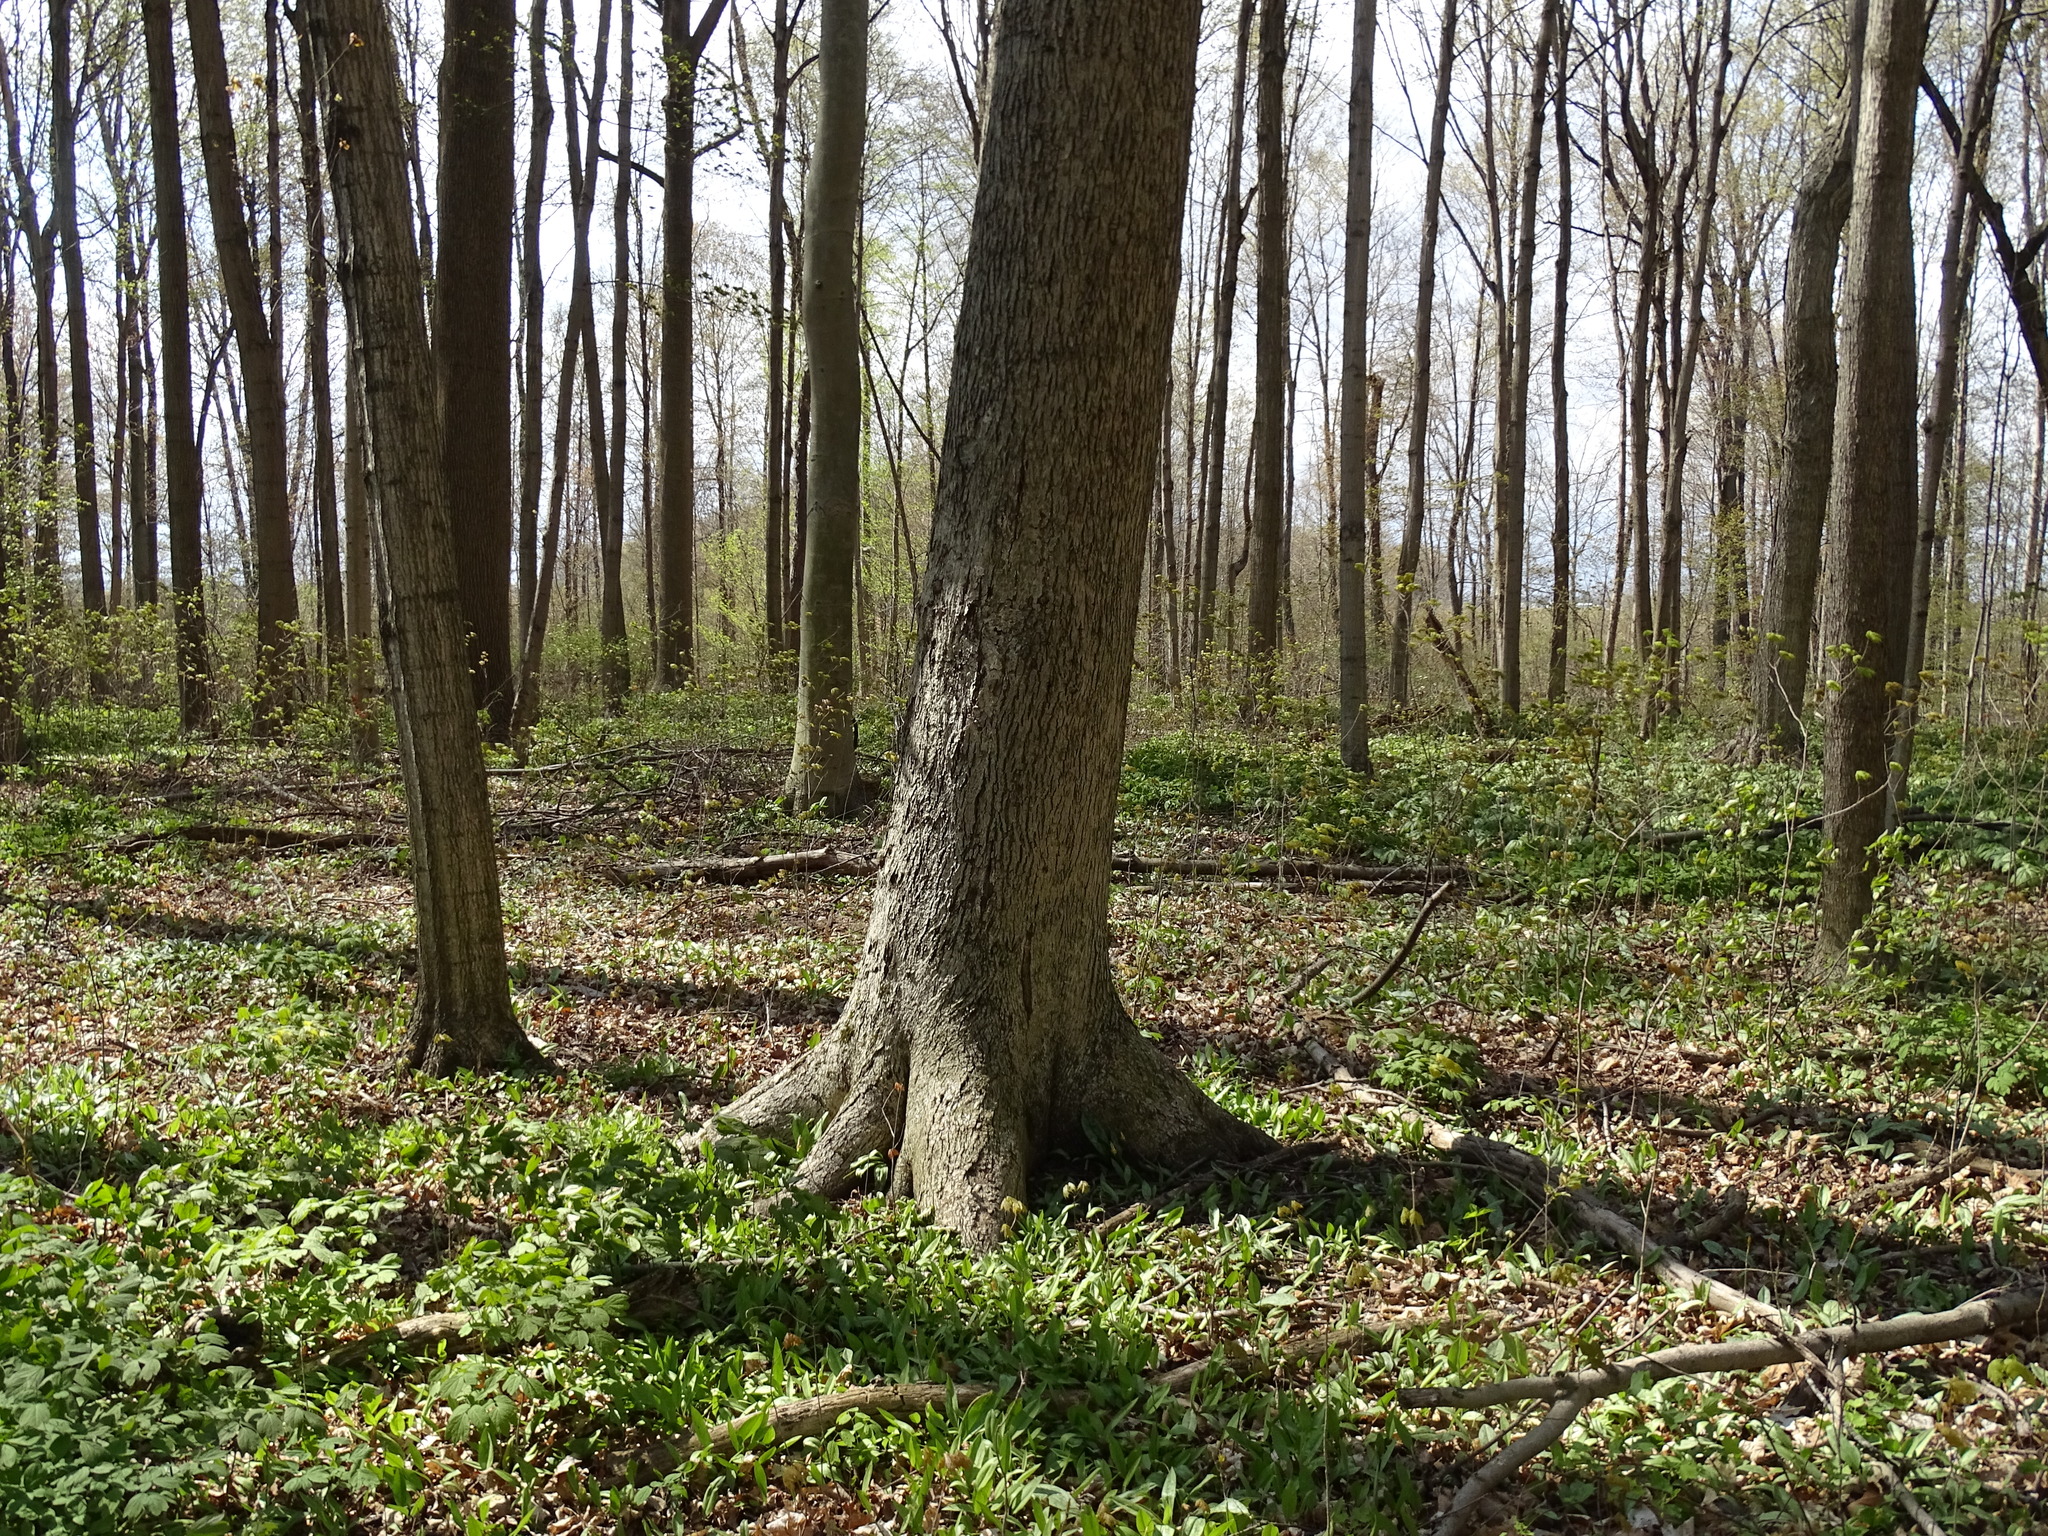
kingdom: Plantae
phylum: Tracheophyta
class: Magnoliopsida
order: Fagales
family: Juglandaceae
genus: Carya
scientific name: Carya cordiformis
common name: Bitternut hickory
